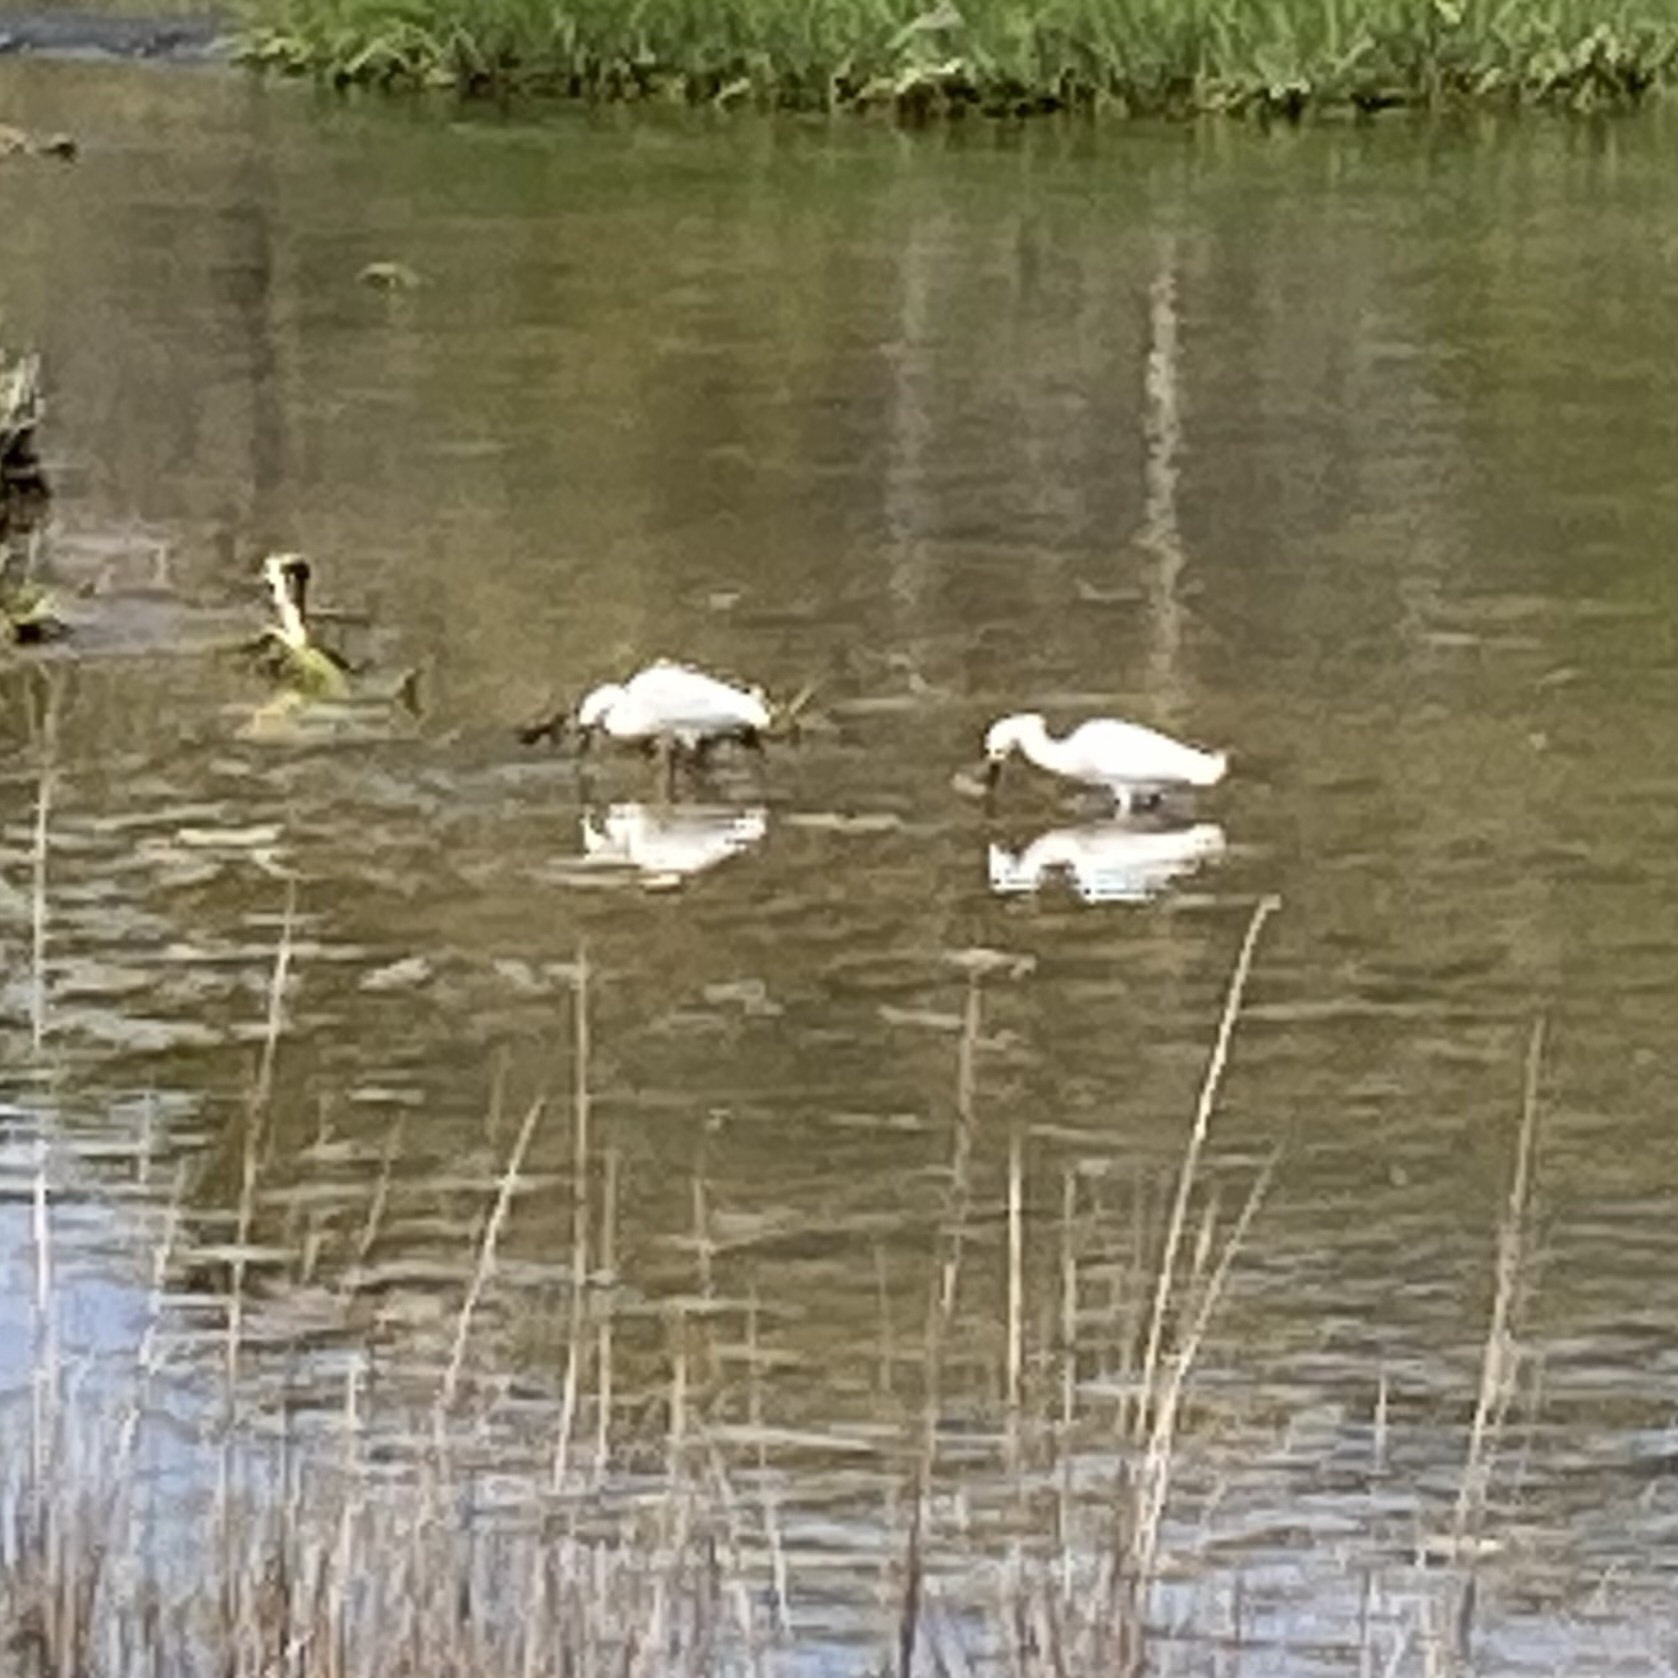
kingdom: Animalia
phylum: Chordata
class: Aves
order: Pelecaniformes
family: Ardeidae
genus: Egretta
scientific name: Egretta thula
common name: Snowy egret
